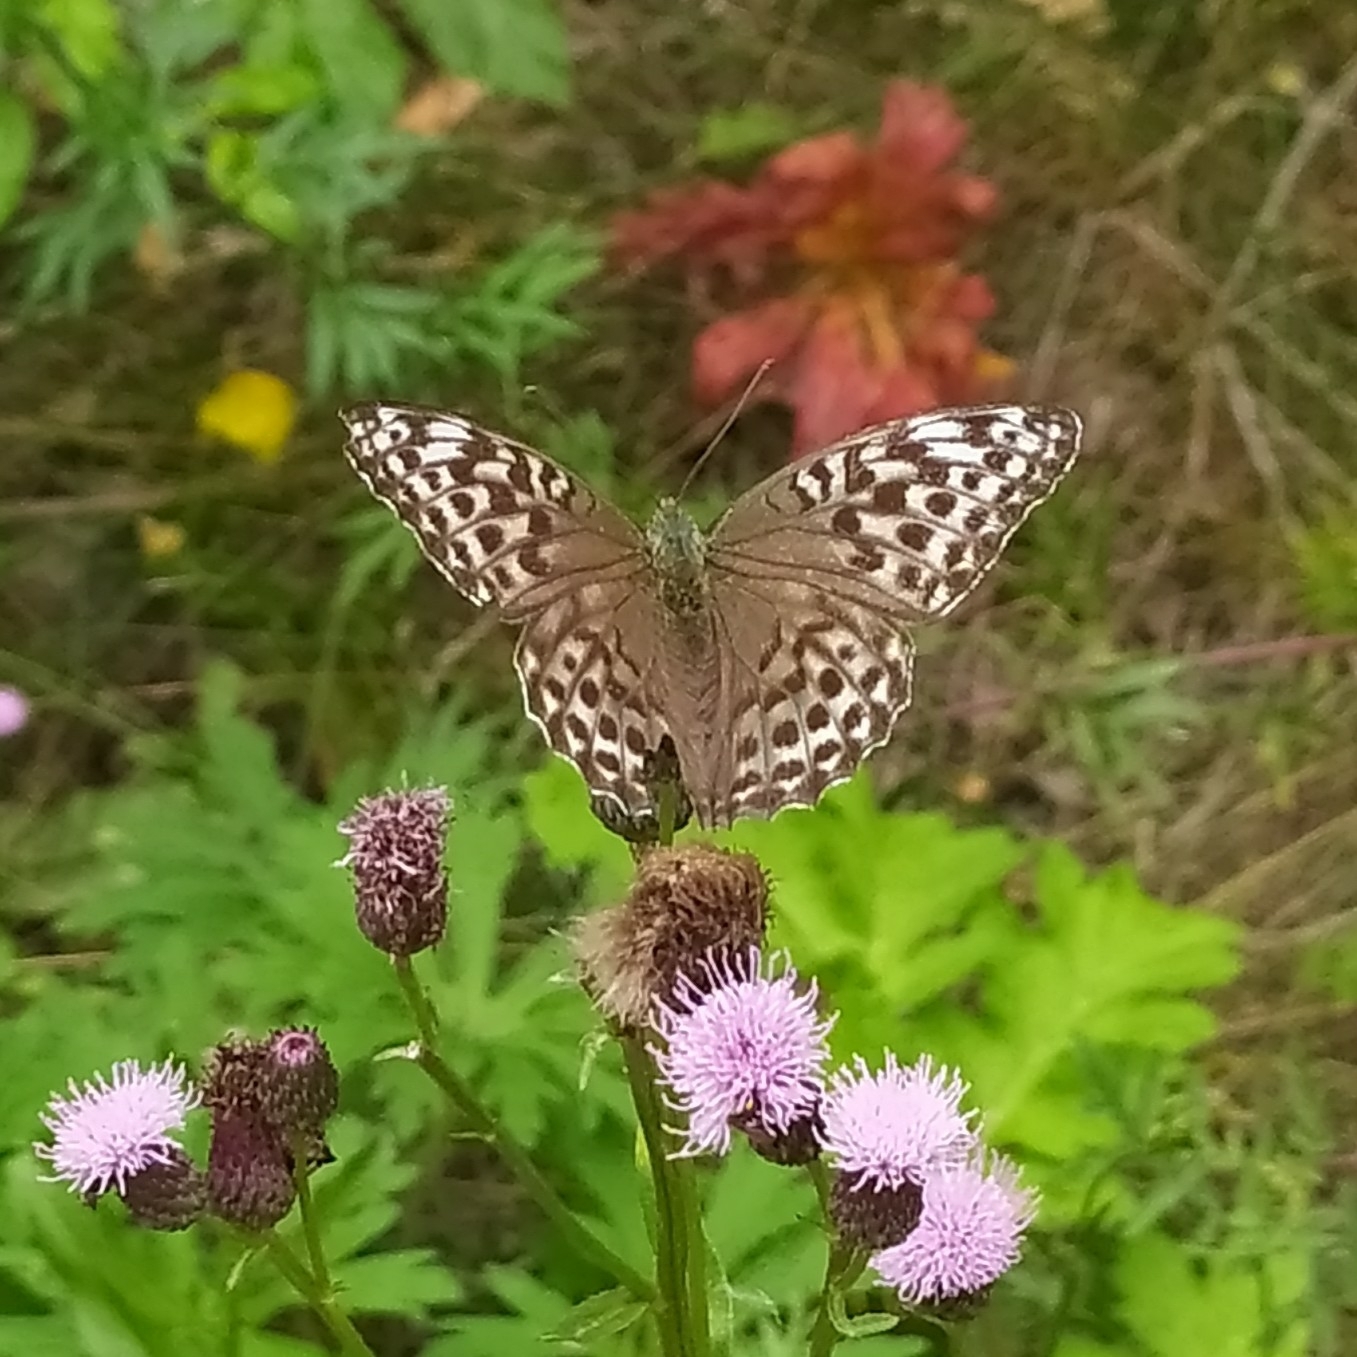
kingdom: Animalia
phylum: Arthropoda
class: Insecta
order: Lepidoptera
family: Nymphalidae
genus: Argynnis
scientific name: Argynnis paphia
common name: Silver-washed fritillary
